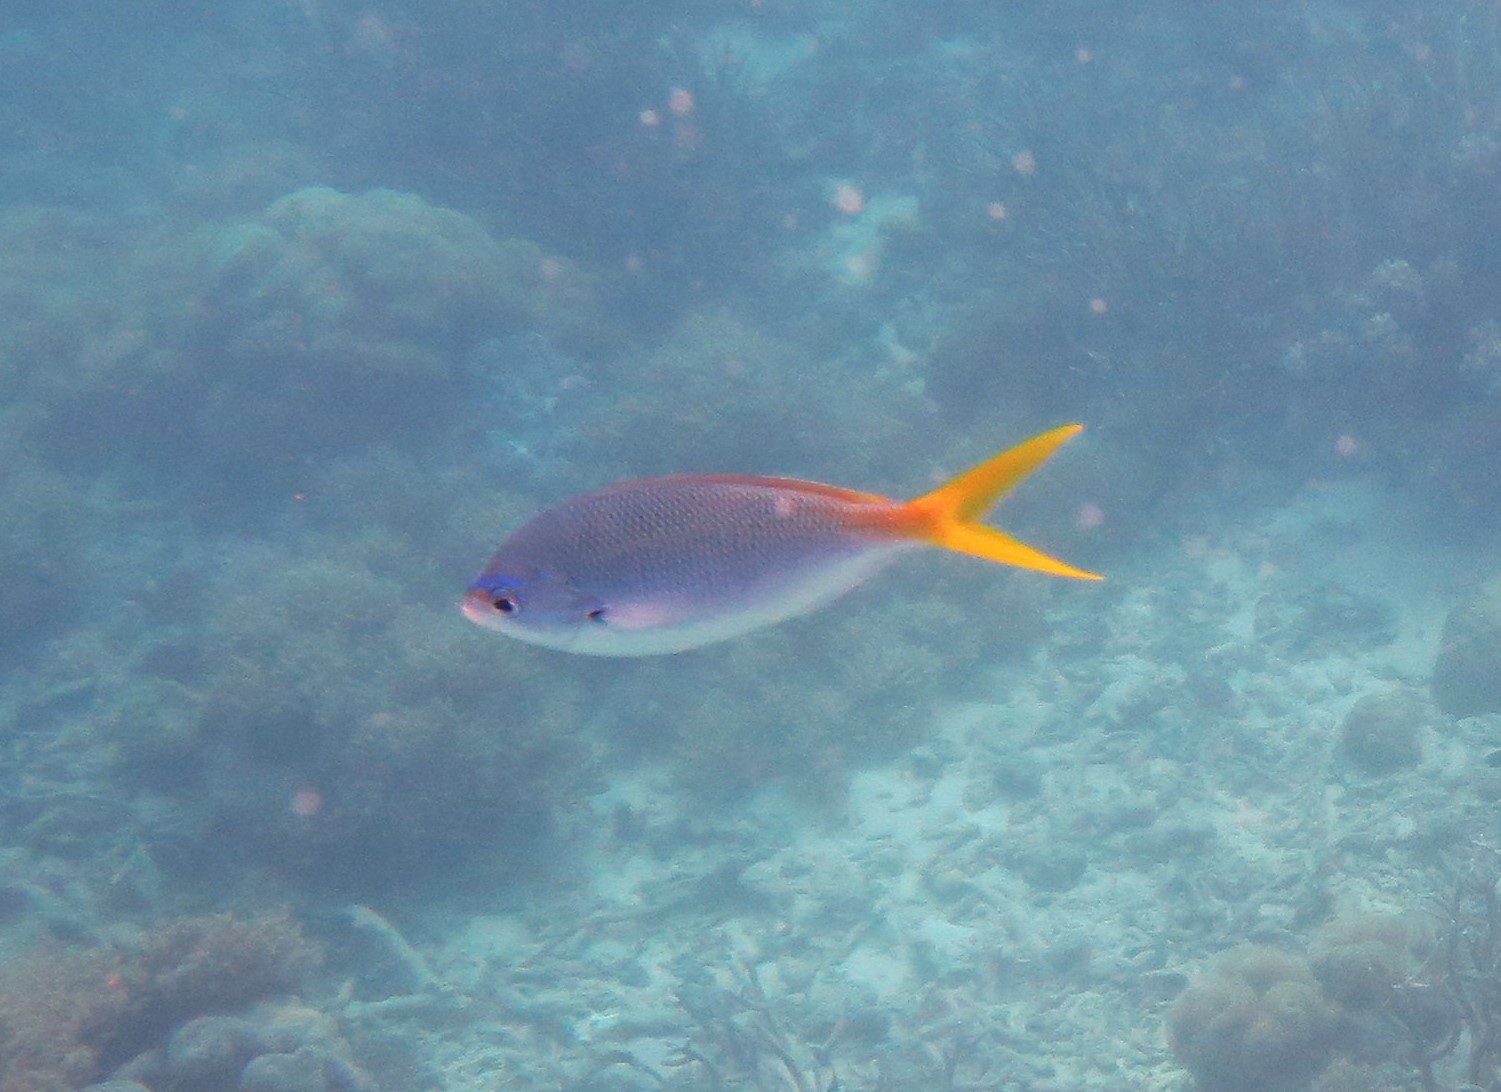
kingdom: Animalia
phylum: Chordata
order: Perciformes
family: Caesionidae
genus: Caesio
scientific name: Caesio cuning
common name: Red-bellied fusilier
